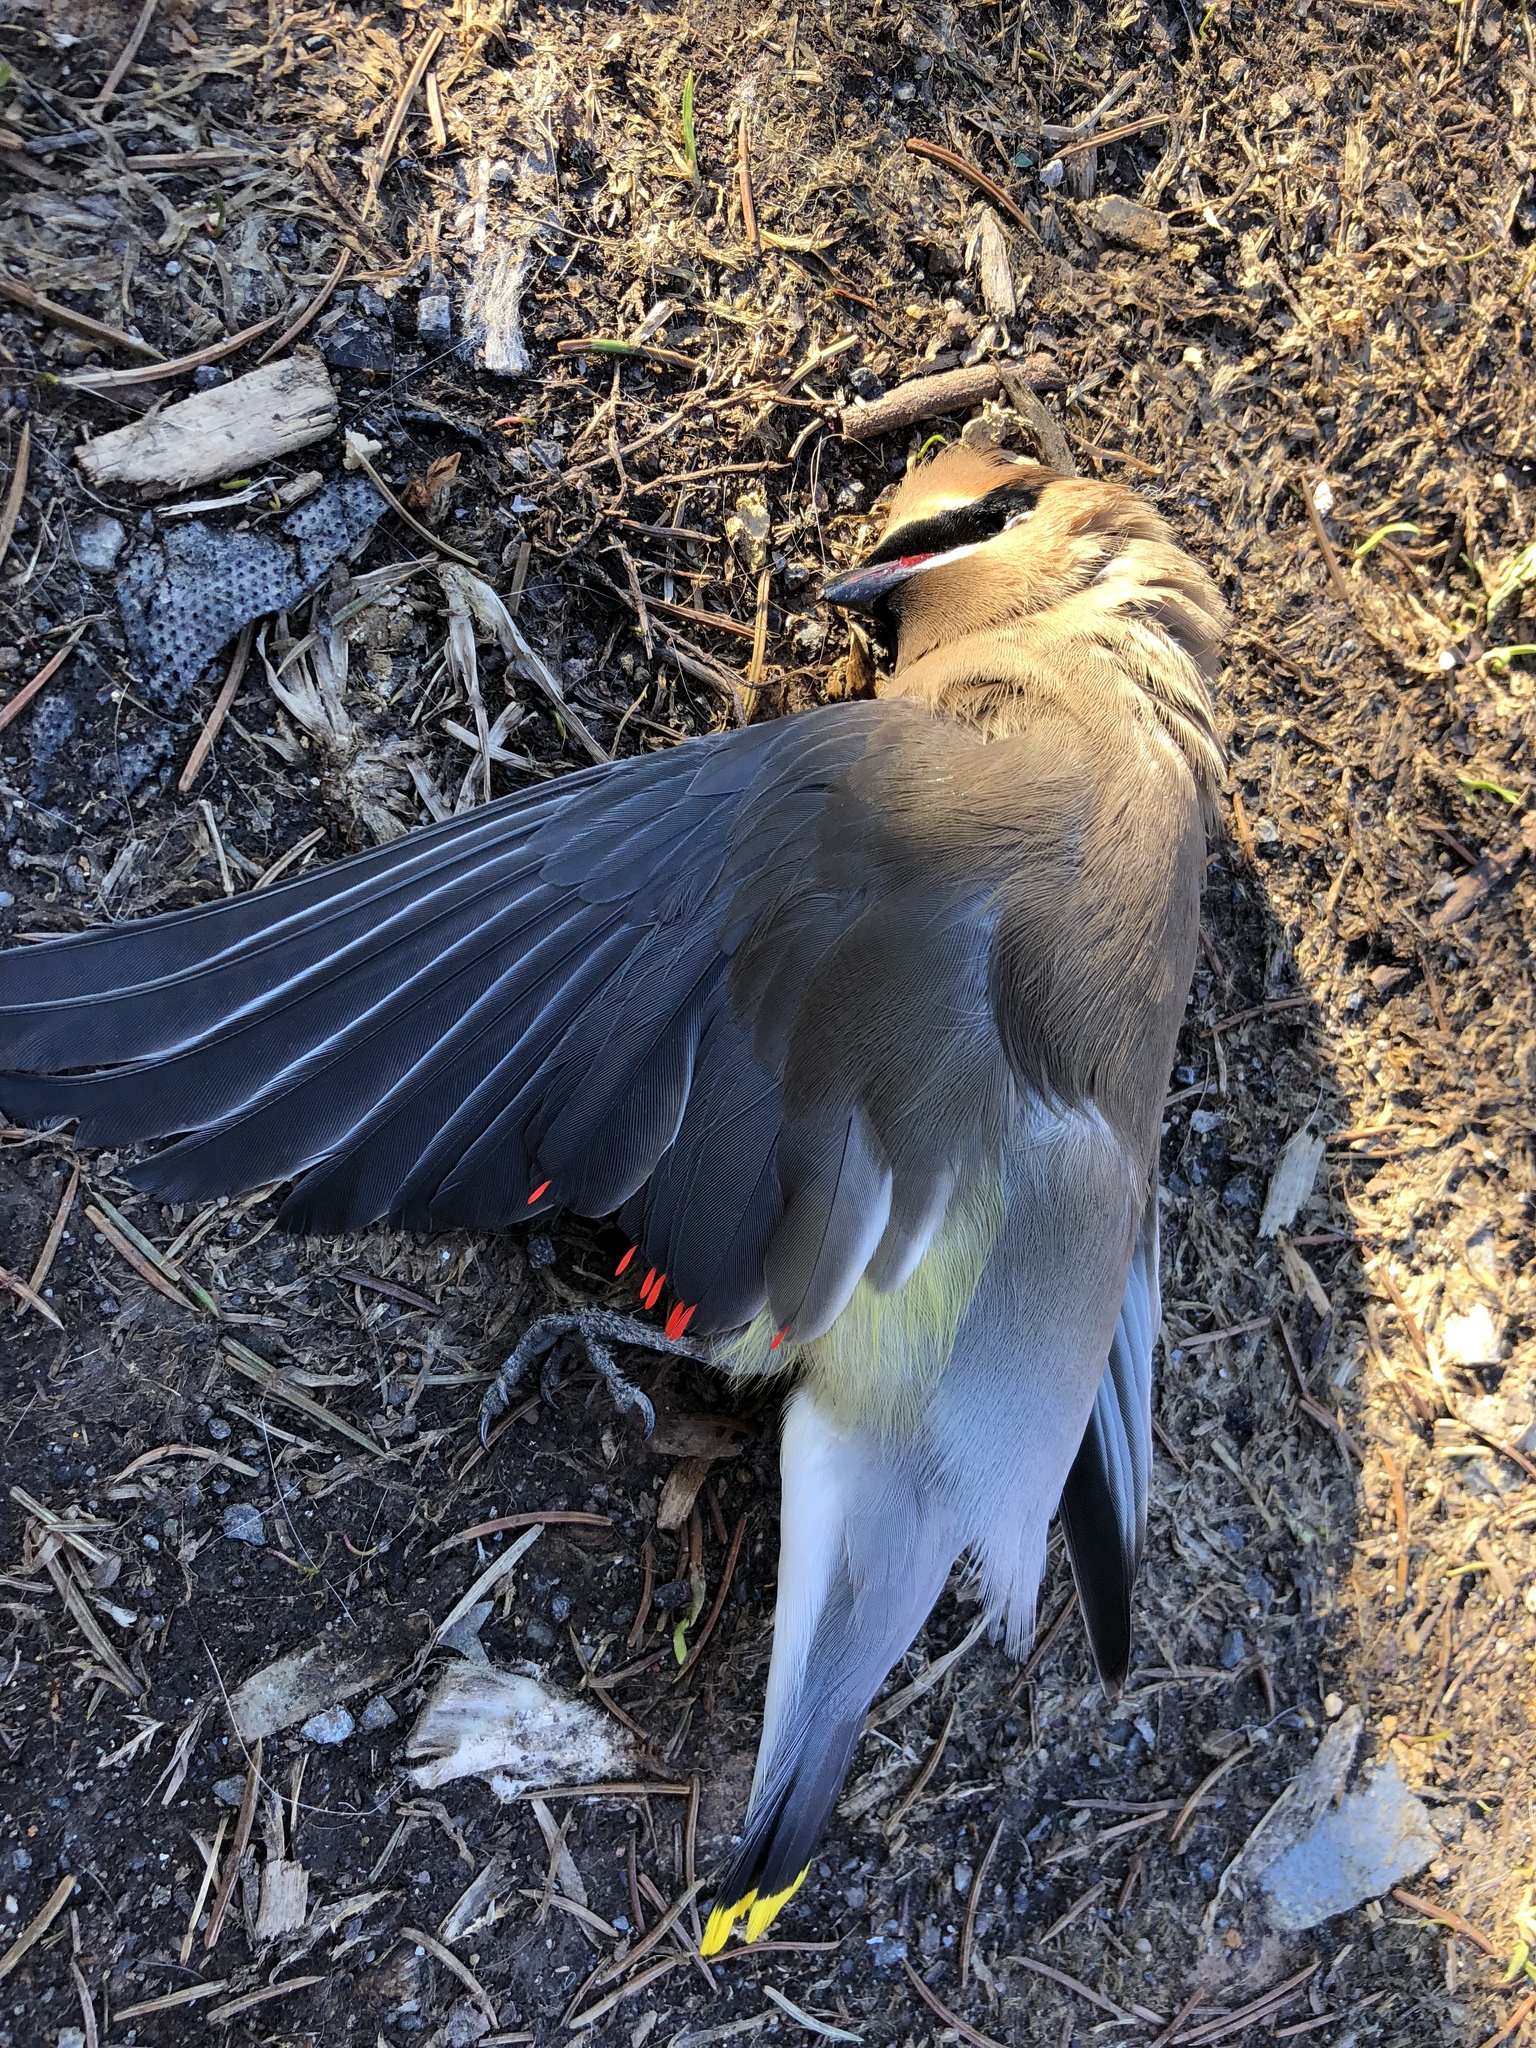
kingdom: Animalia
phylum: Chordata
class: Aves
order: Passeriformes
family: Bombycillidae
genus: Bombycilla
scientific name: Bombycilla cedrorum
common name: Cedar waxwing
